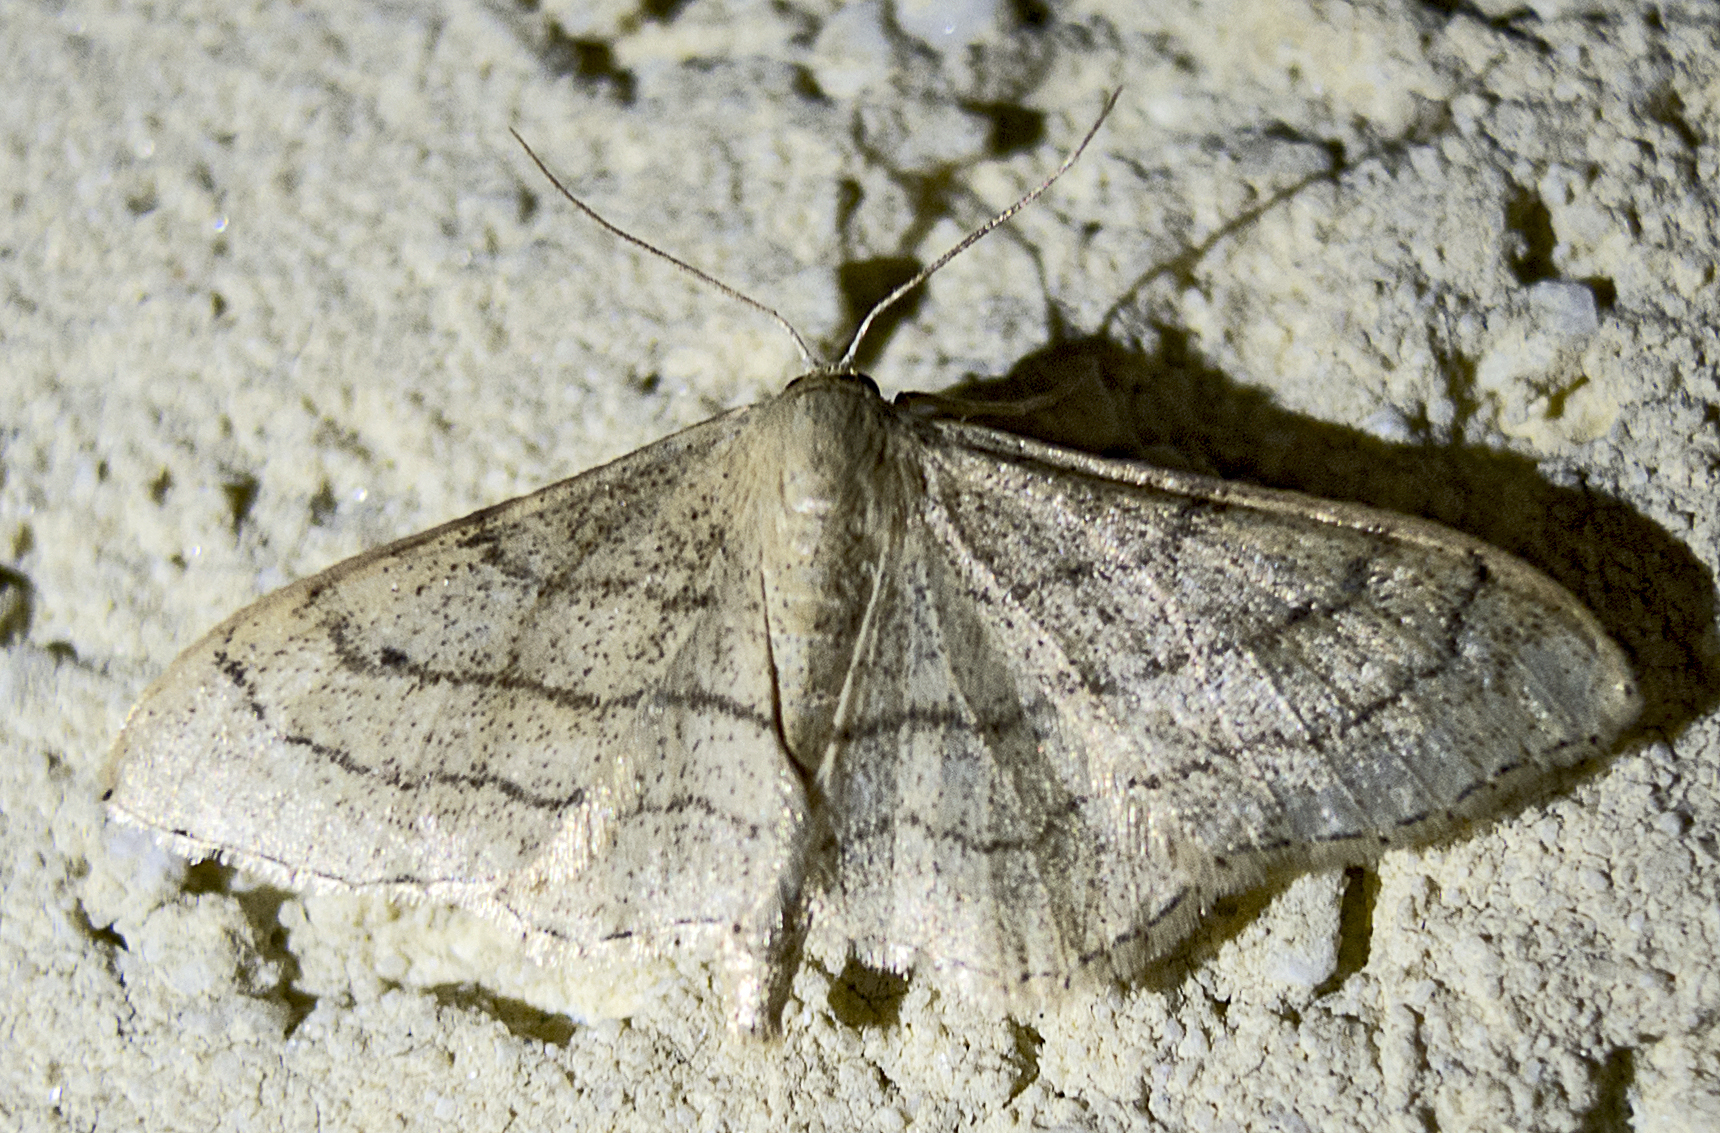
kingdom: Animalia
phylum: Arthropoda
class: Insecta
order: Lepidoptera
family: Geometridae
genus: Idaea
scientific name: Idaea aversata
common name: Riband wave
